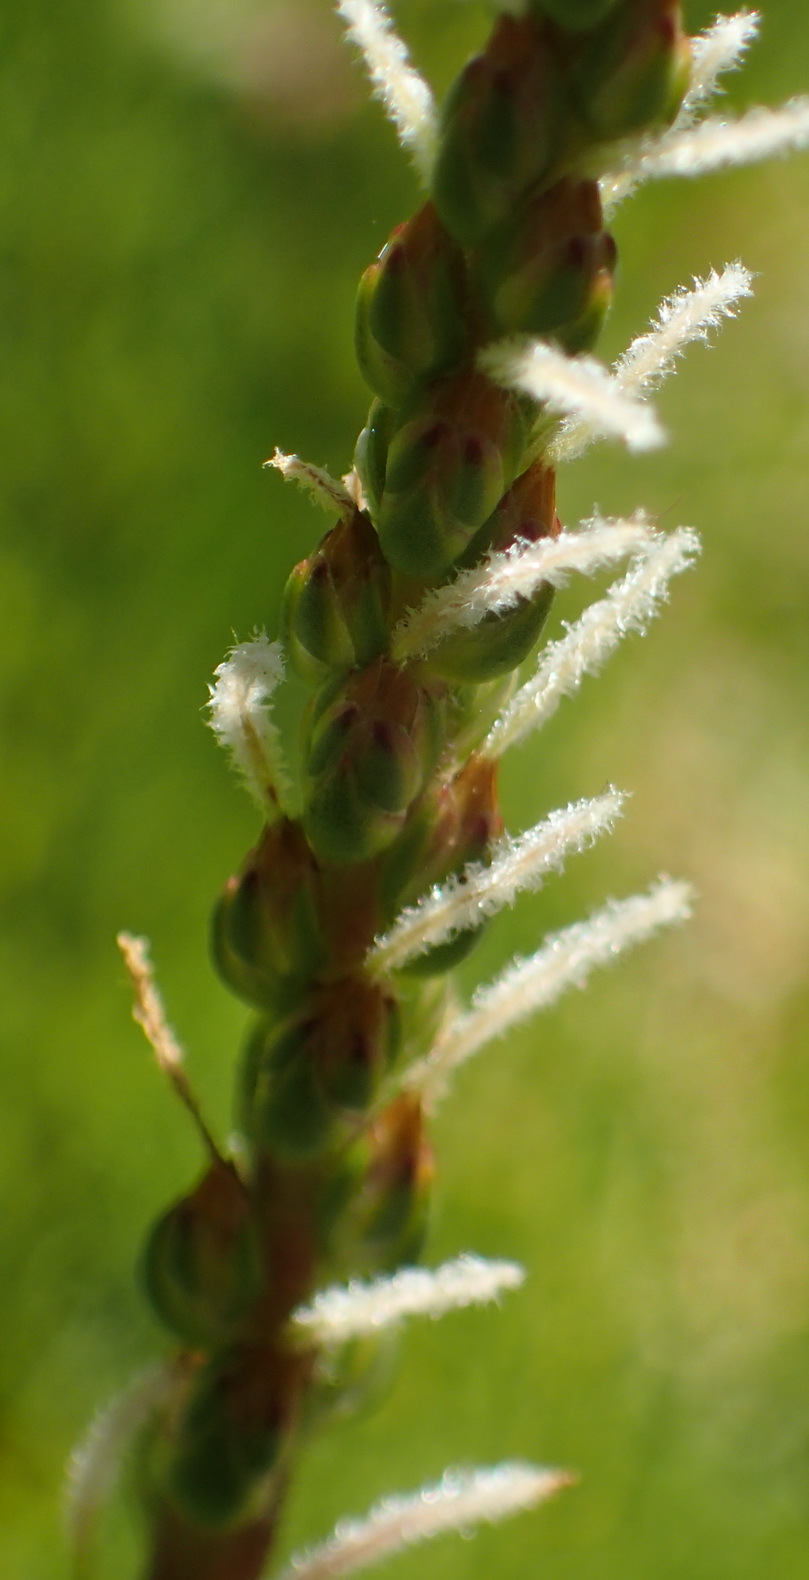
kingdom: Plantae
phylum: Tracheophyta
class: Liliopsida
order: Alismatales
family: Juncaginaceae
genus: Triglochin
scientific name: Triglochin striata
